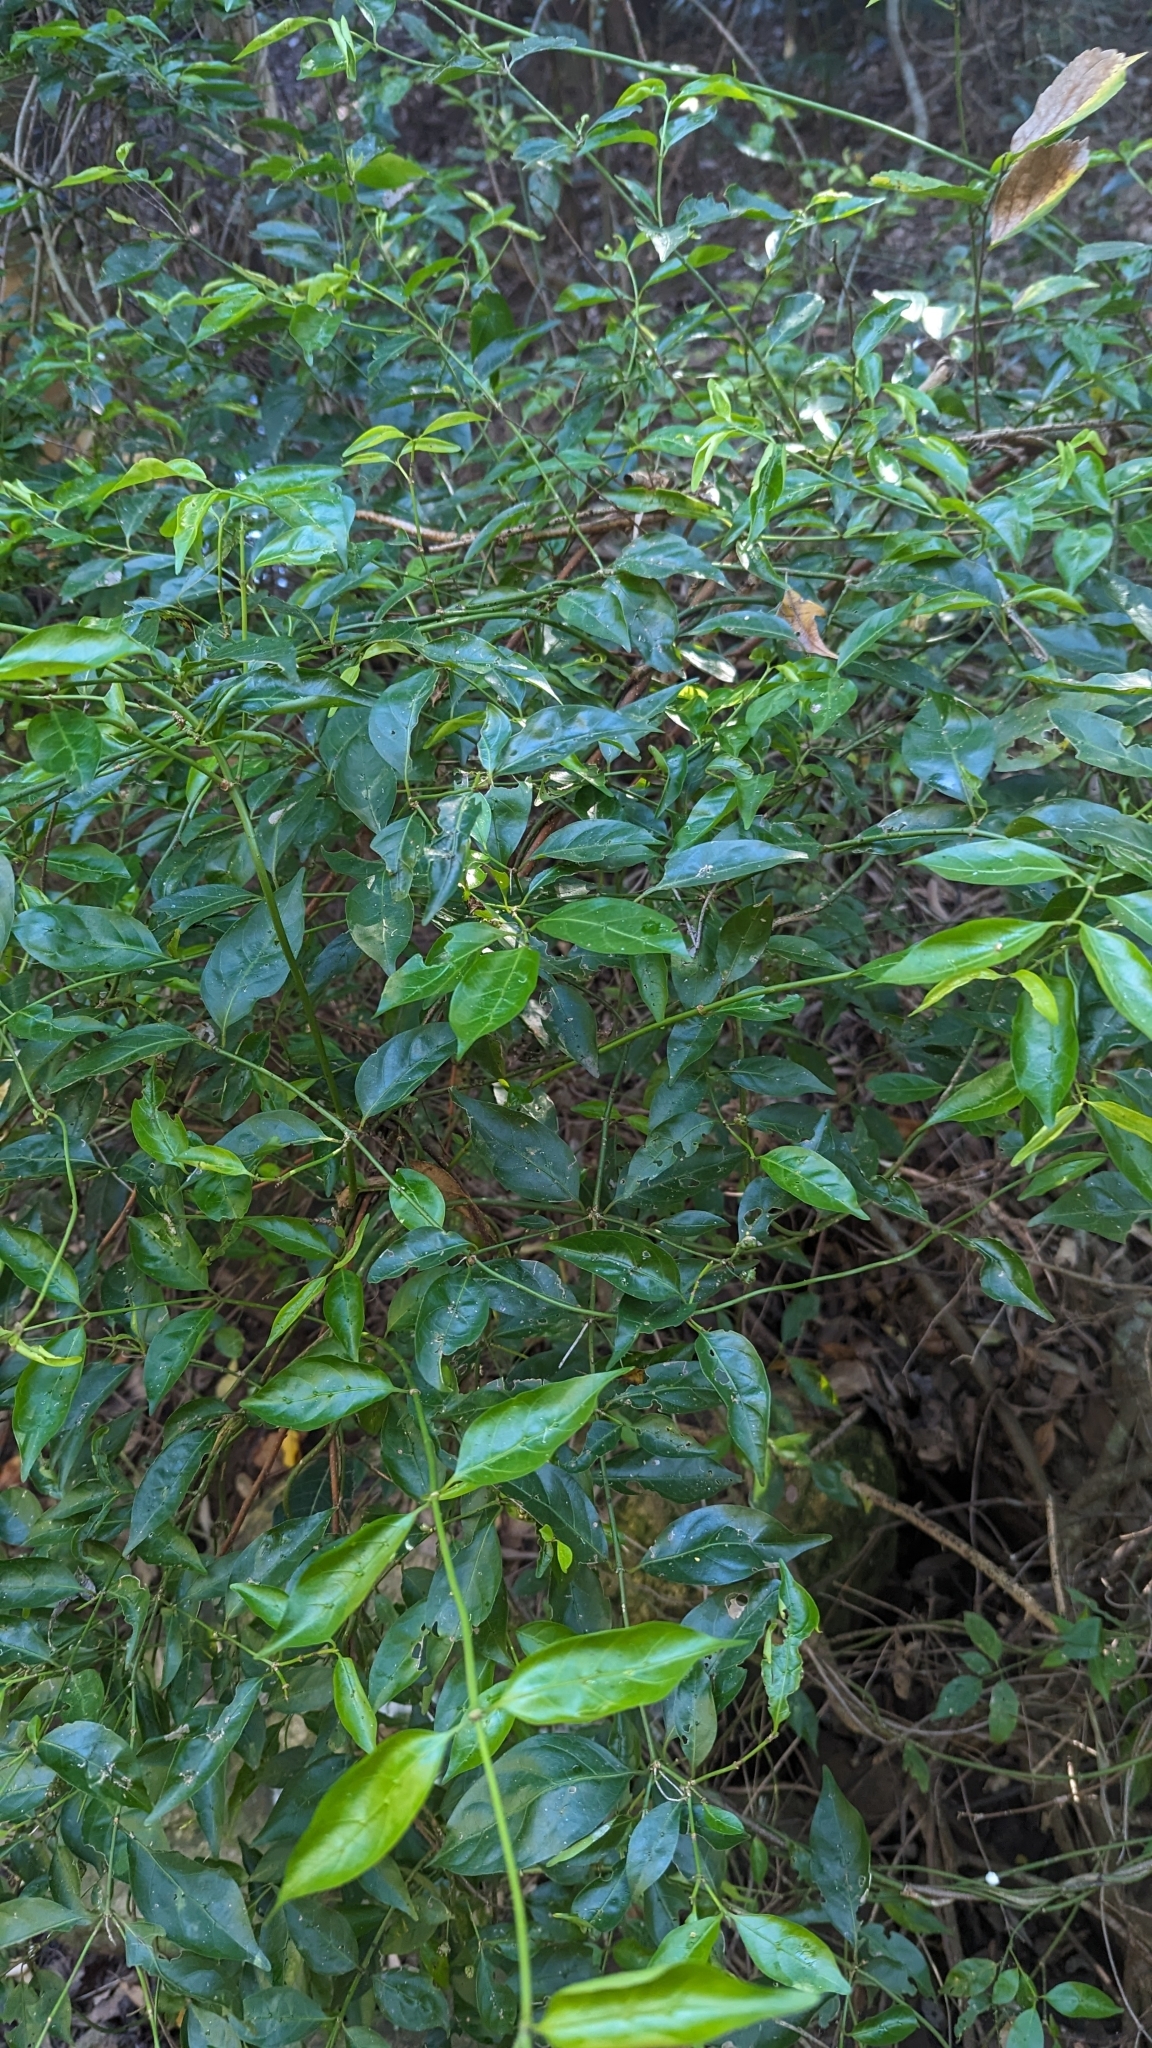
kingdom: Plantae
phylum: Tracheophyta
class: Magnoliopsida
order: Gentianales
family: Rubiaceae
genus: Gynochthodes
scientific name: Gynochthodes jasminoides
